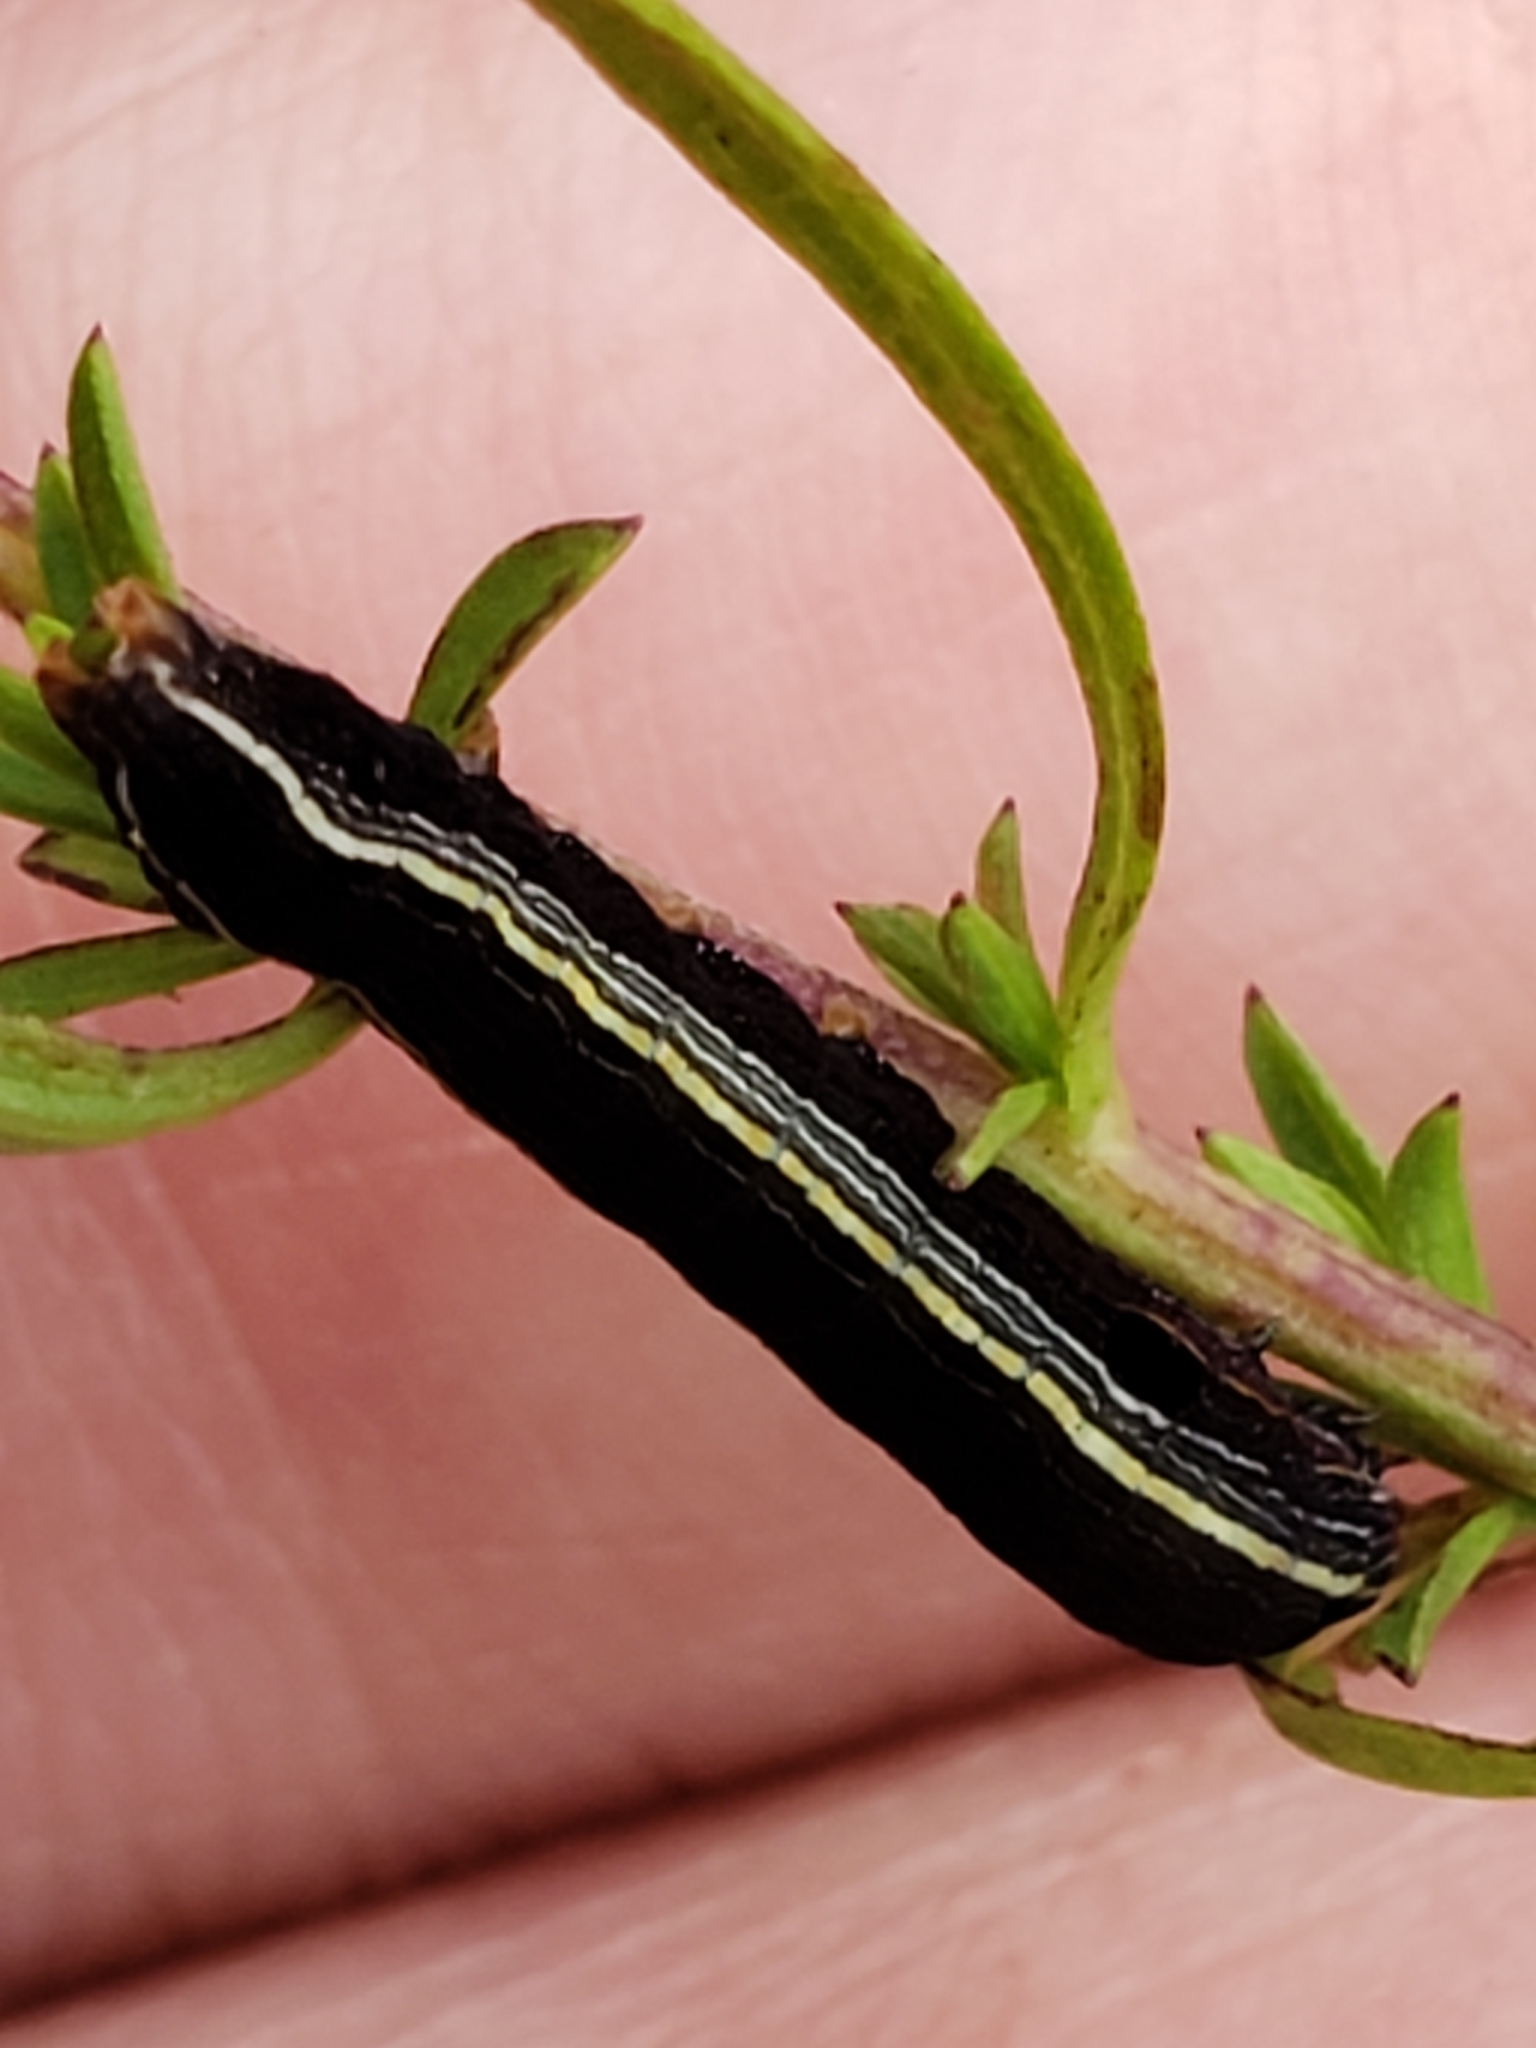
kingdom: Animalia
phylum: Arthropoda
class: Insecta
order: Lepidoptera
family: Noctuidae
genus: Spodoptera
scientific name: Spodoptera ornithogalli
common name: Yellow-striped armyworm
